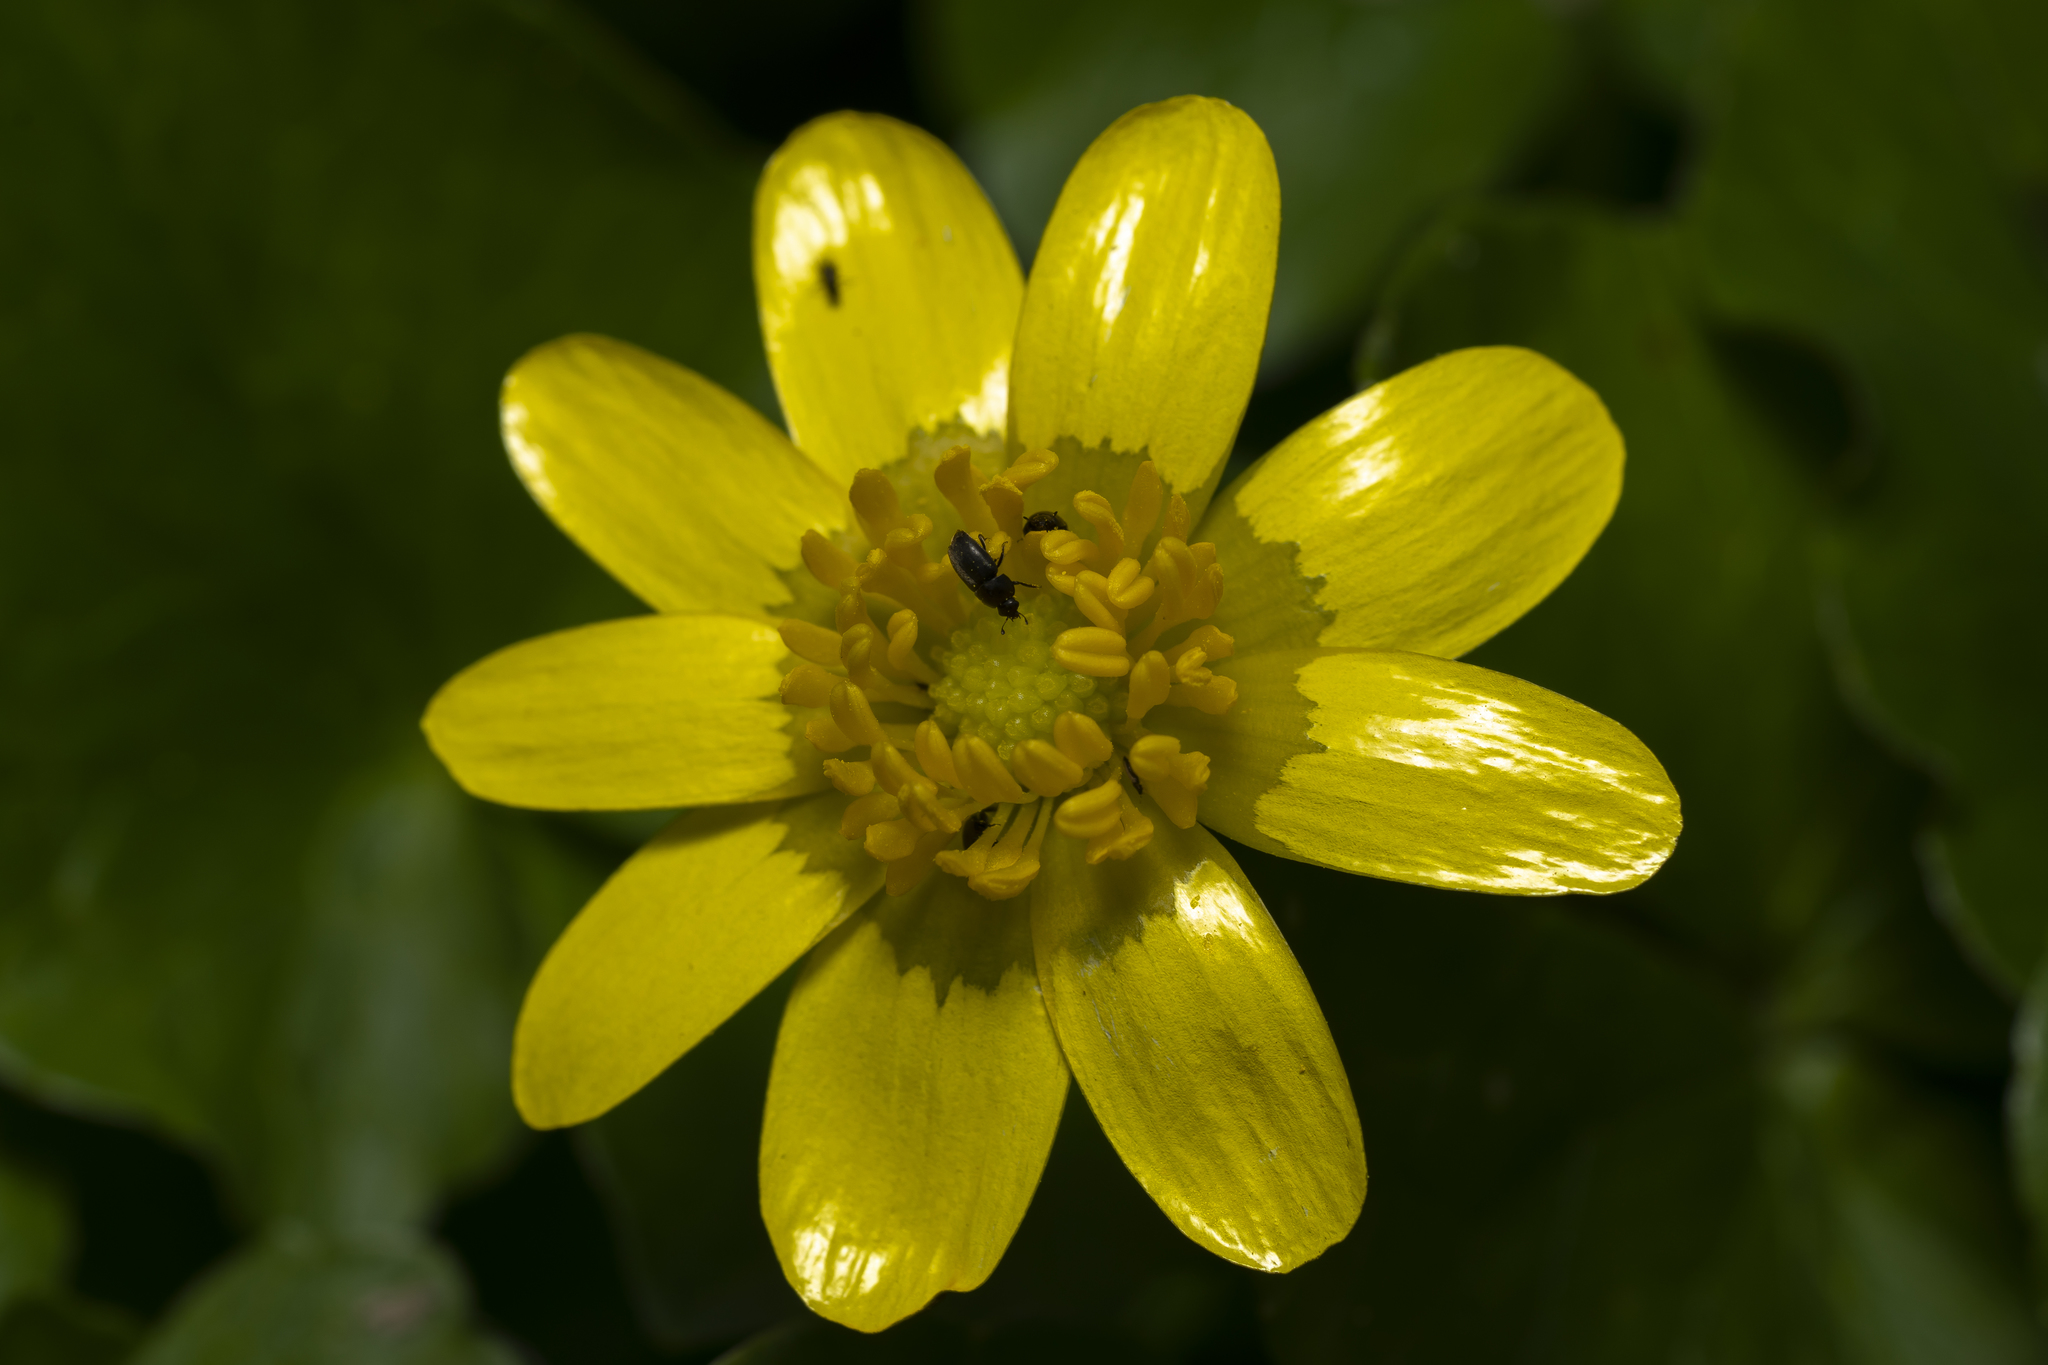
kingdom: Plantae
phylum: Tracheophyta
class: Magnoliopsida
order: Ranunculales
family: Ranunculaceae
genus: Ficaria
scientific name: Ficaria chrysocephala
